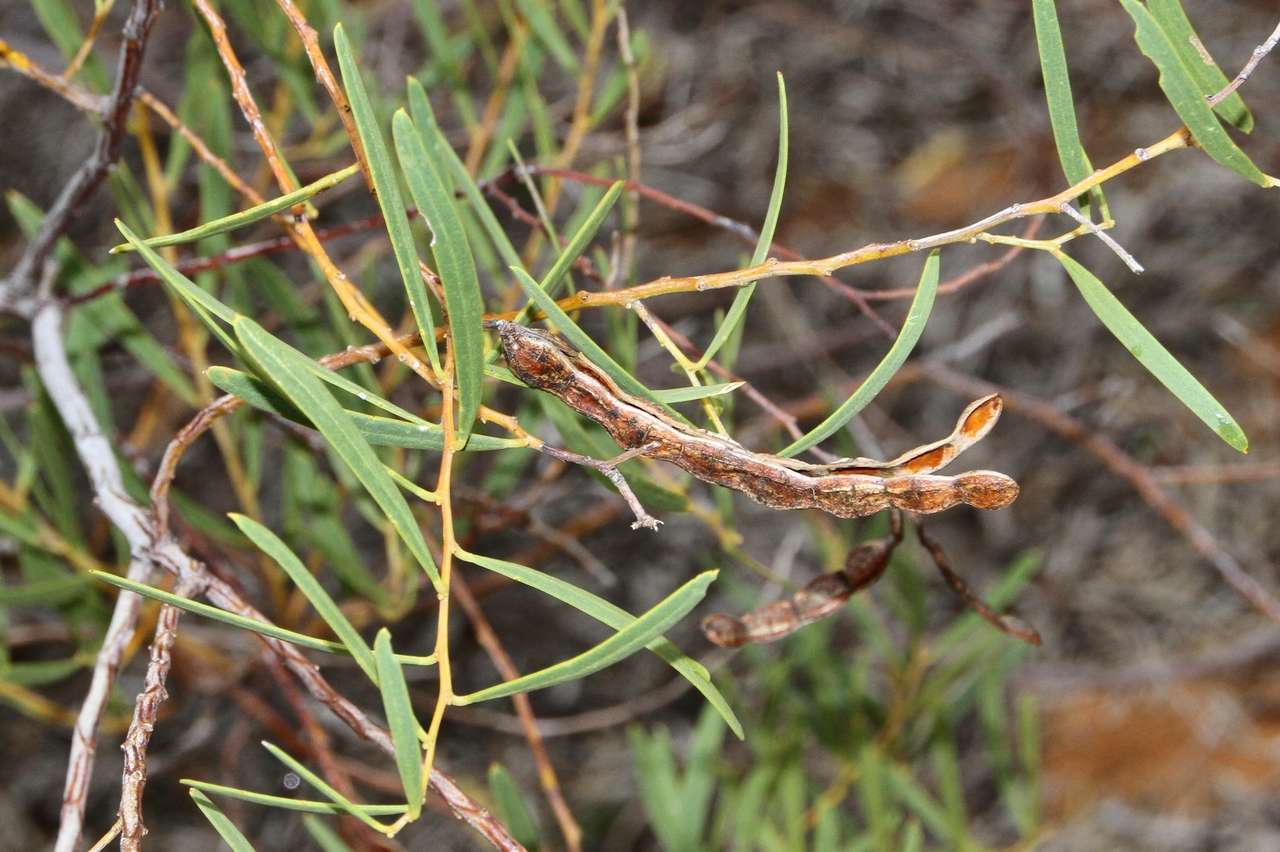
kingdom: Plantae
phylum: Tracheophyta
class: Magnoliopsida
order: Fabales
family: Fabaceae
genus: Acacia
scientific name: Acacia ligulata
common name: Dune wattle
